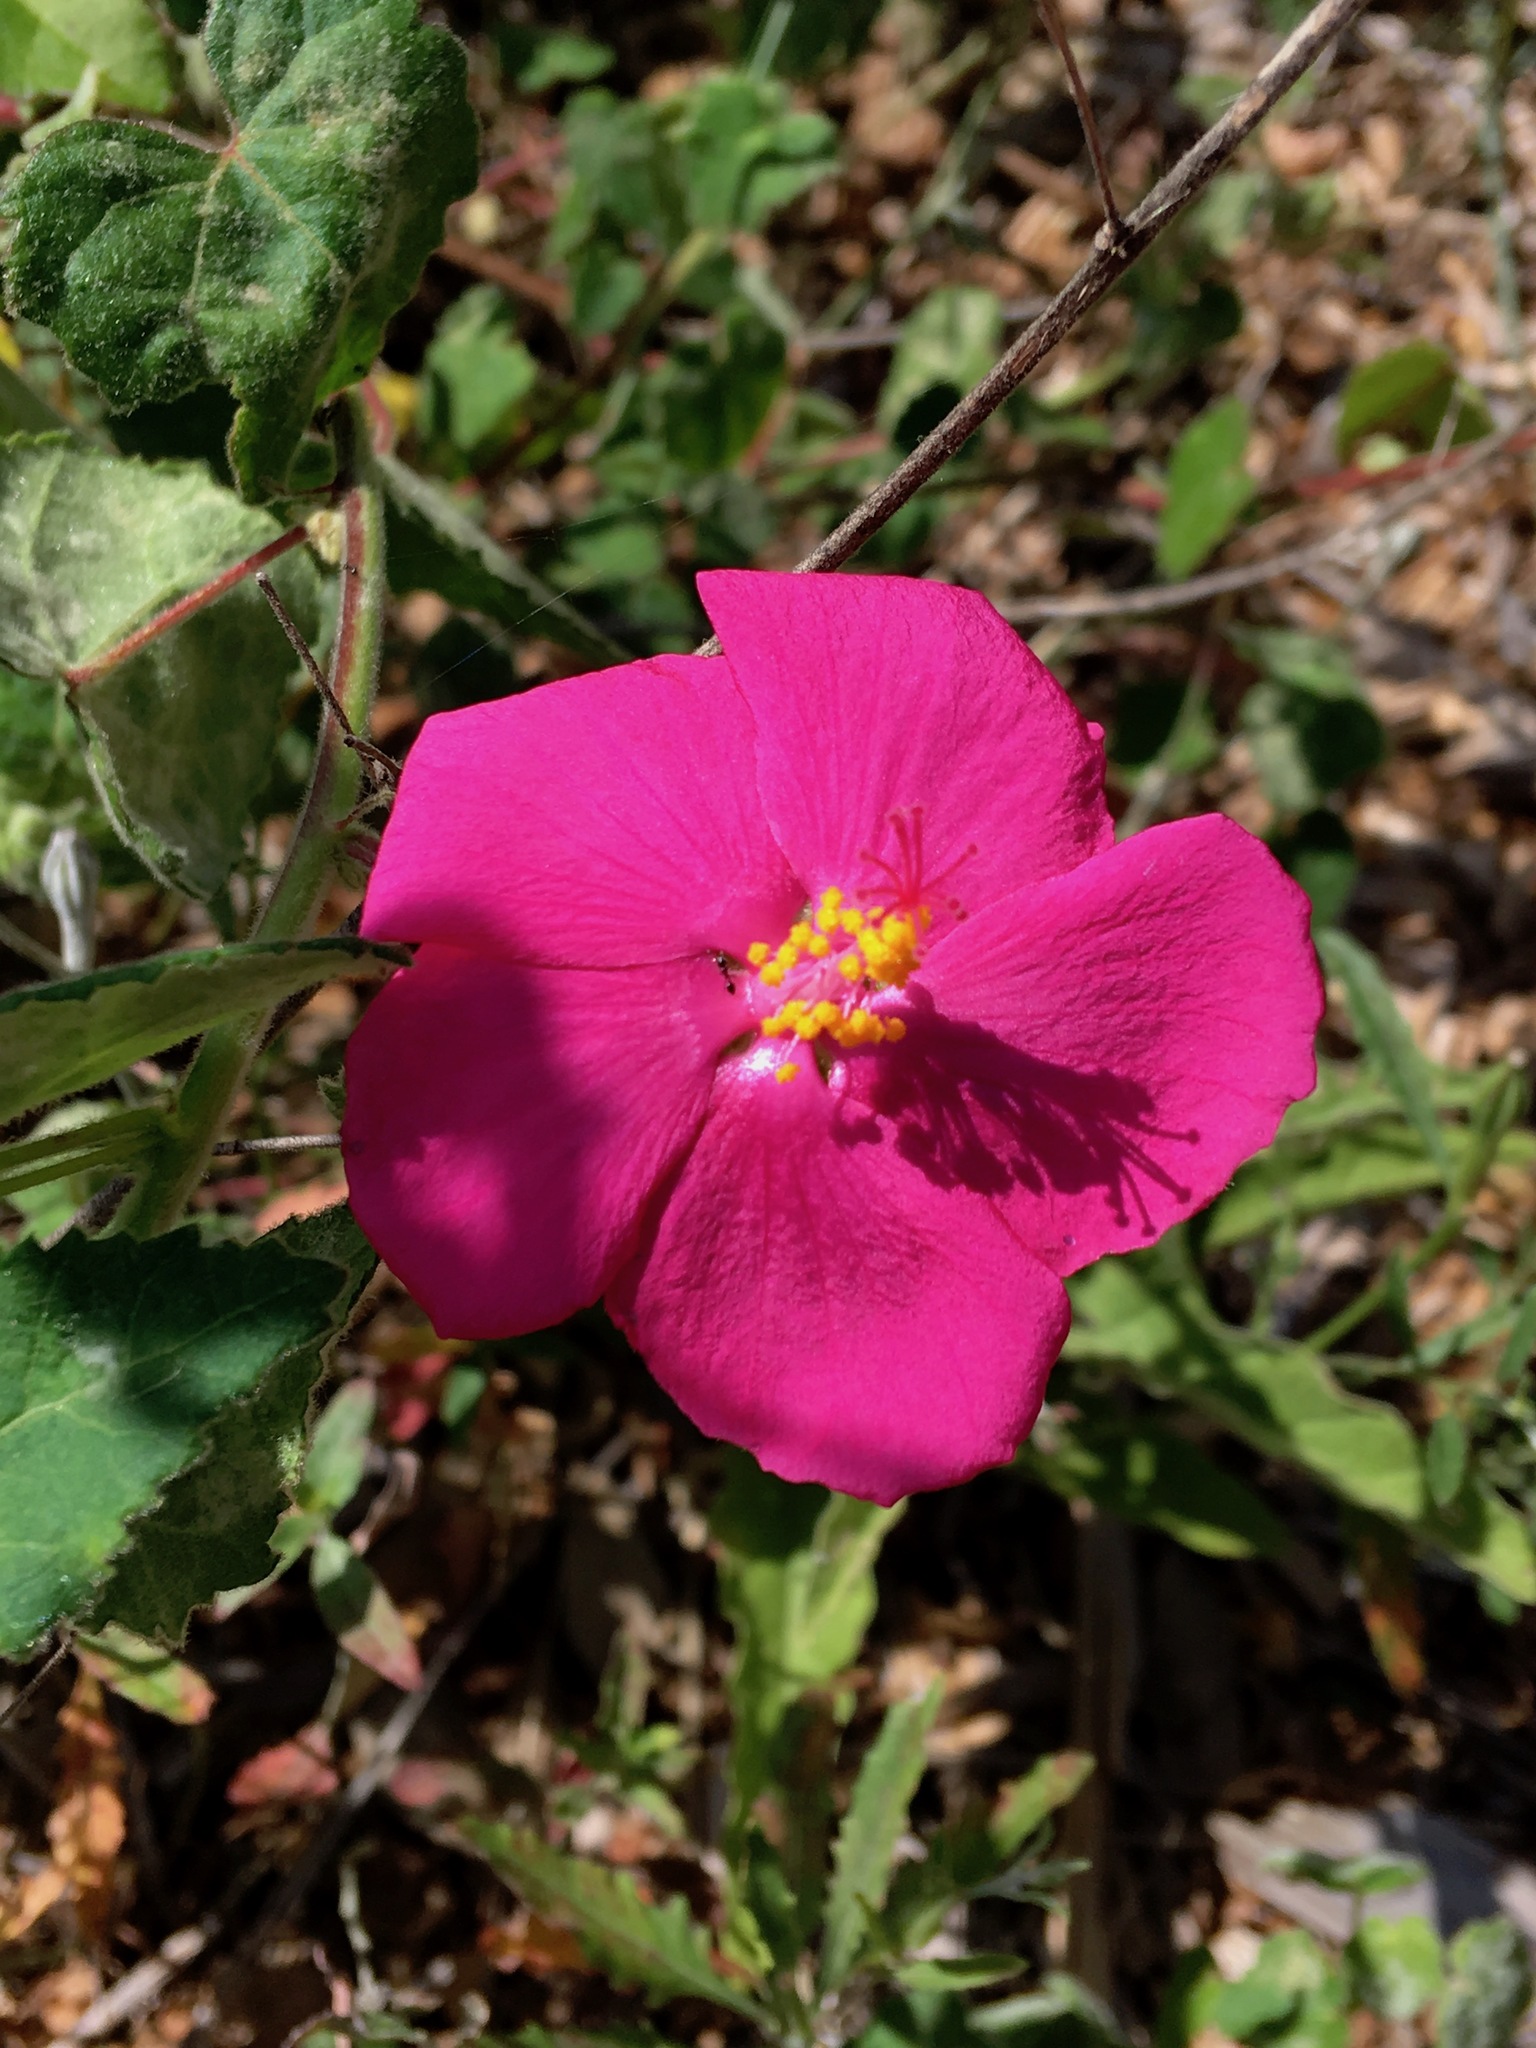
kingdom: Plantae
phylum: Tracheophyta
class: Magnoliopsida
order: Malvales
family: Malvaceae
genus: Pavonia
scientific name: Pavonia lasiopetala
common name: Texas swamp-mallow
